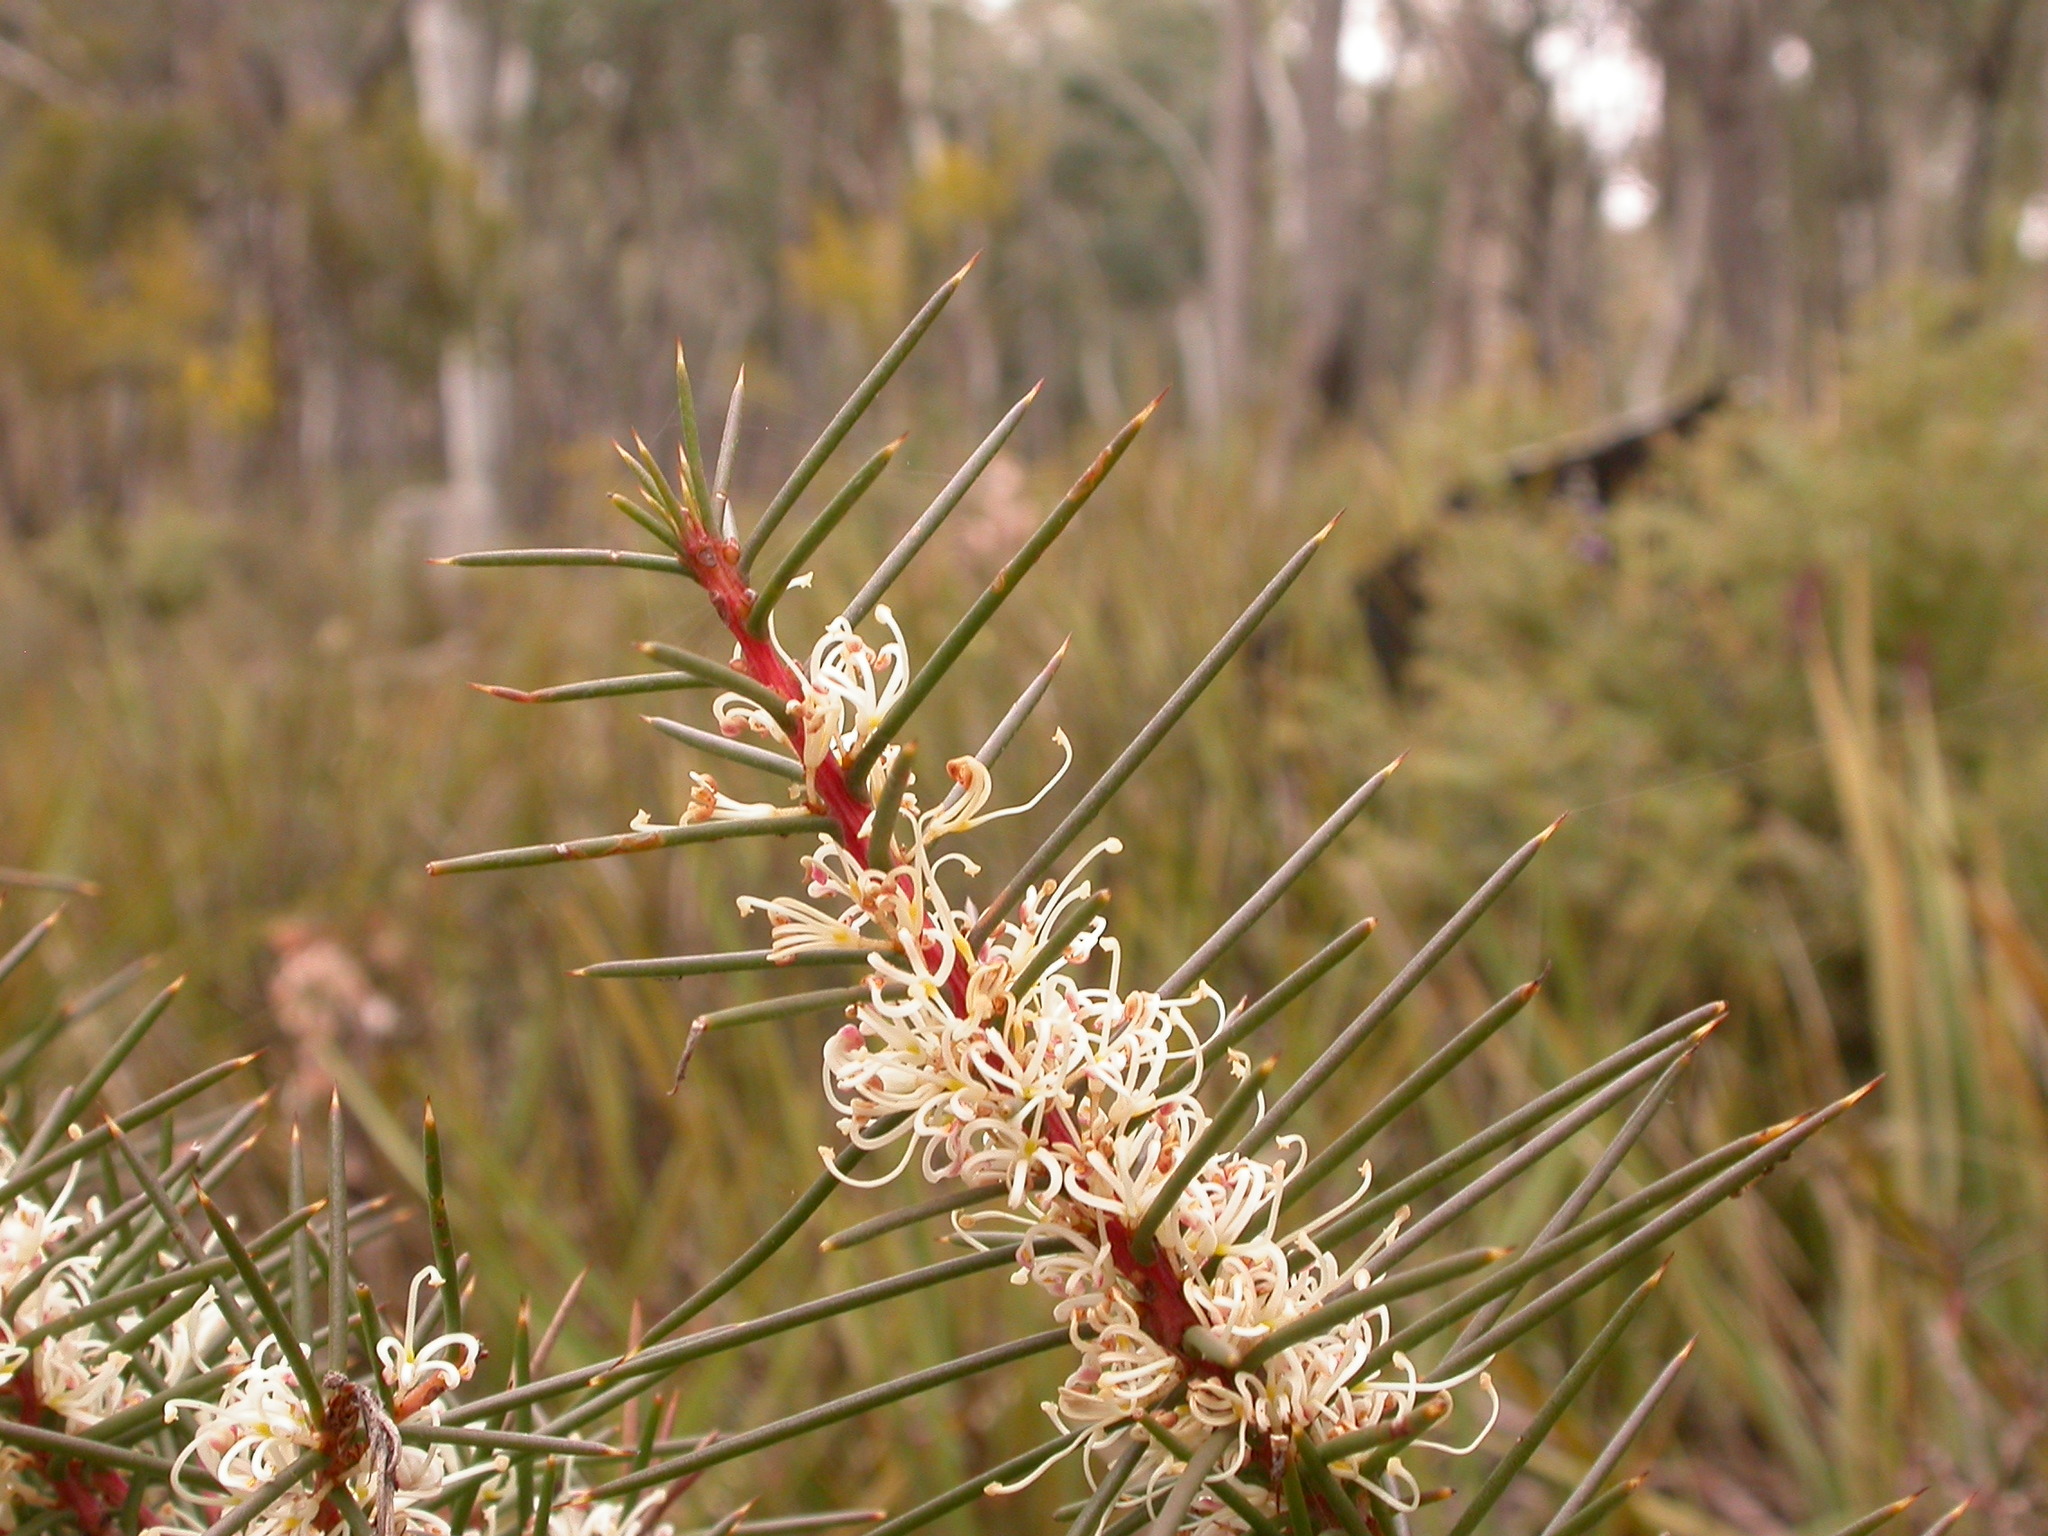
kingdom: Plantae
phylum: Tracheophyta
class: Magnoliopsida
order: Proteales
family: Proteaceae
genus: Hakea
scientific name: Hakea decurrens
